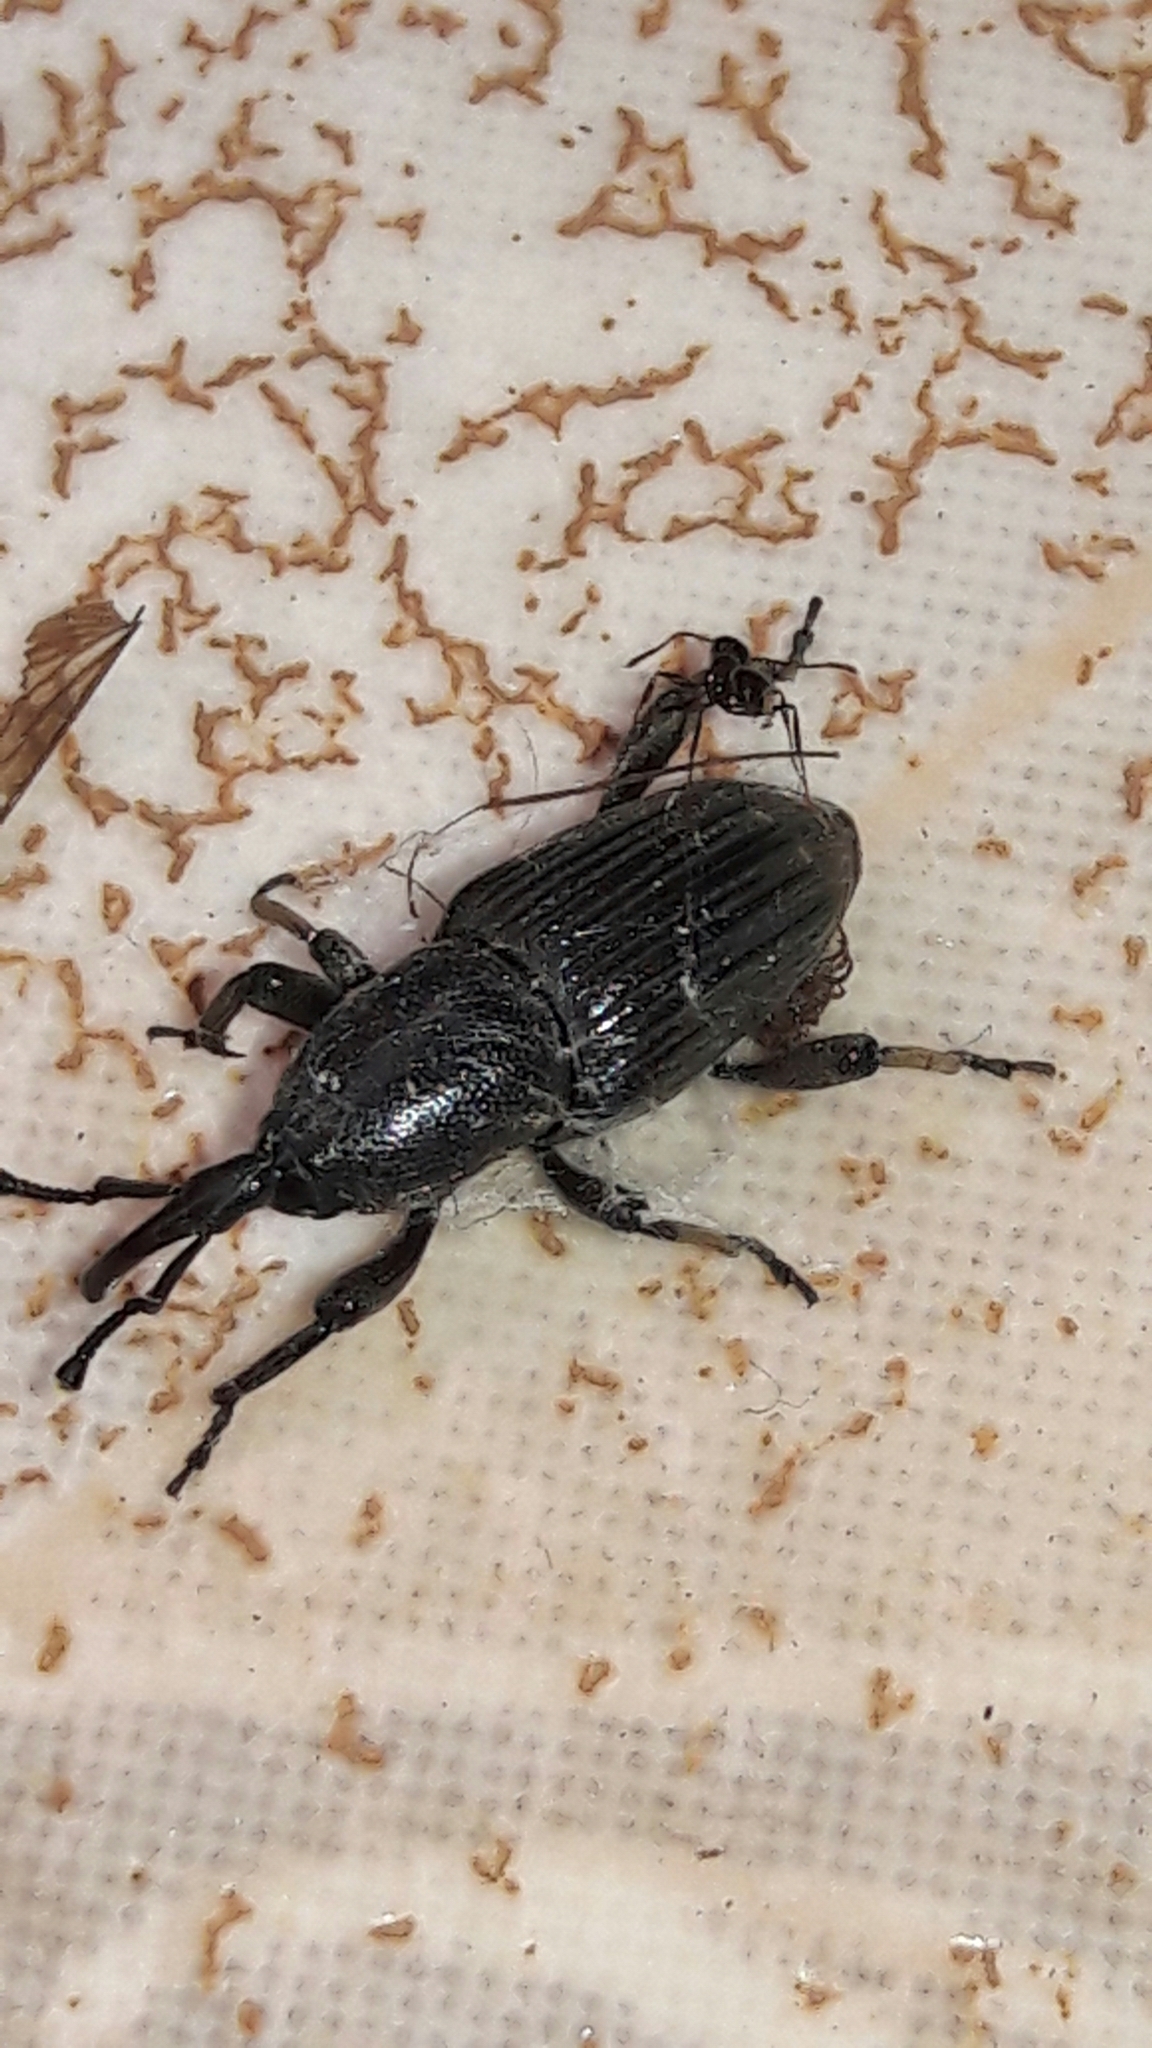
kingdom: Animalia
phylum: Arthropoda
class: Insecta
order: Coleoptera
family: Dryophthoridae
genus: Cosmopolites
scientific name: Cosmopolites sordidus
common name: Palm weevil
